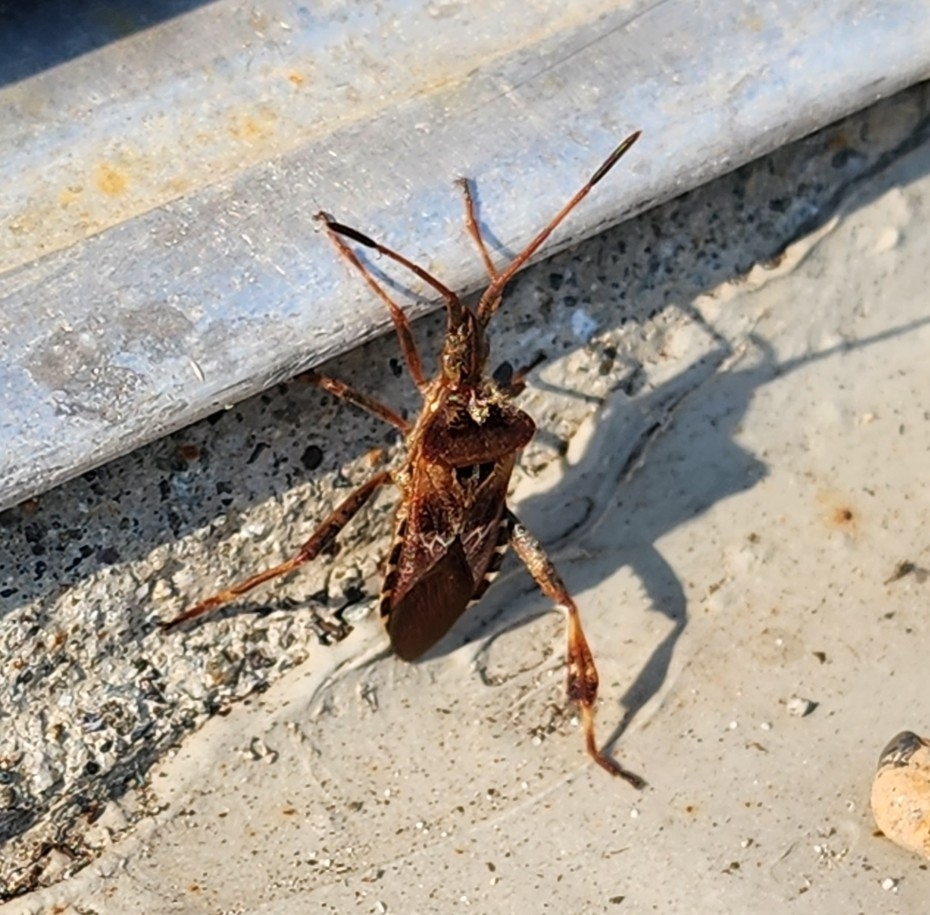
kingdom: Animalia
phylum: Arthropoda
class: Insecta
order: Hemiptera
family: Coreidae
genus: Leptoglossus
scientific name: Leptoglossus occidentalis
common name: Western conifer-seed bug
